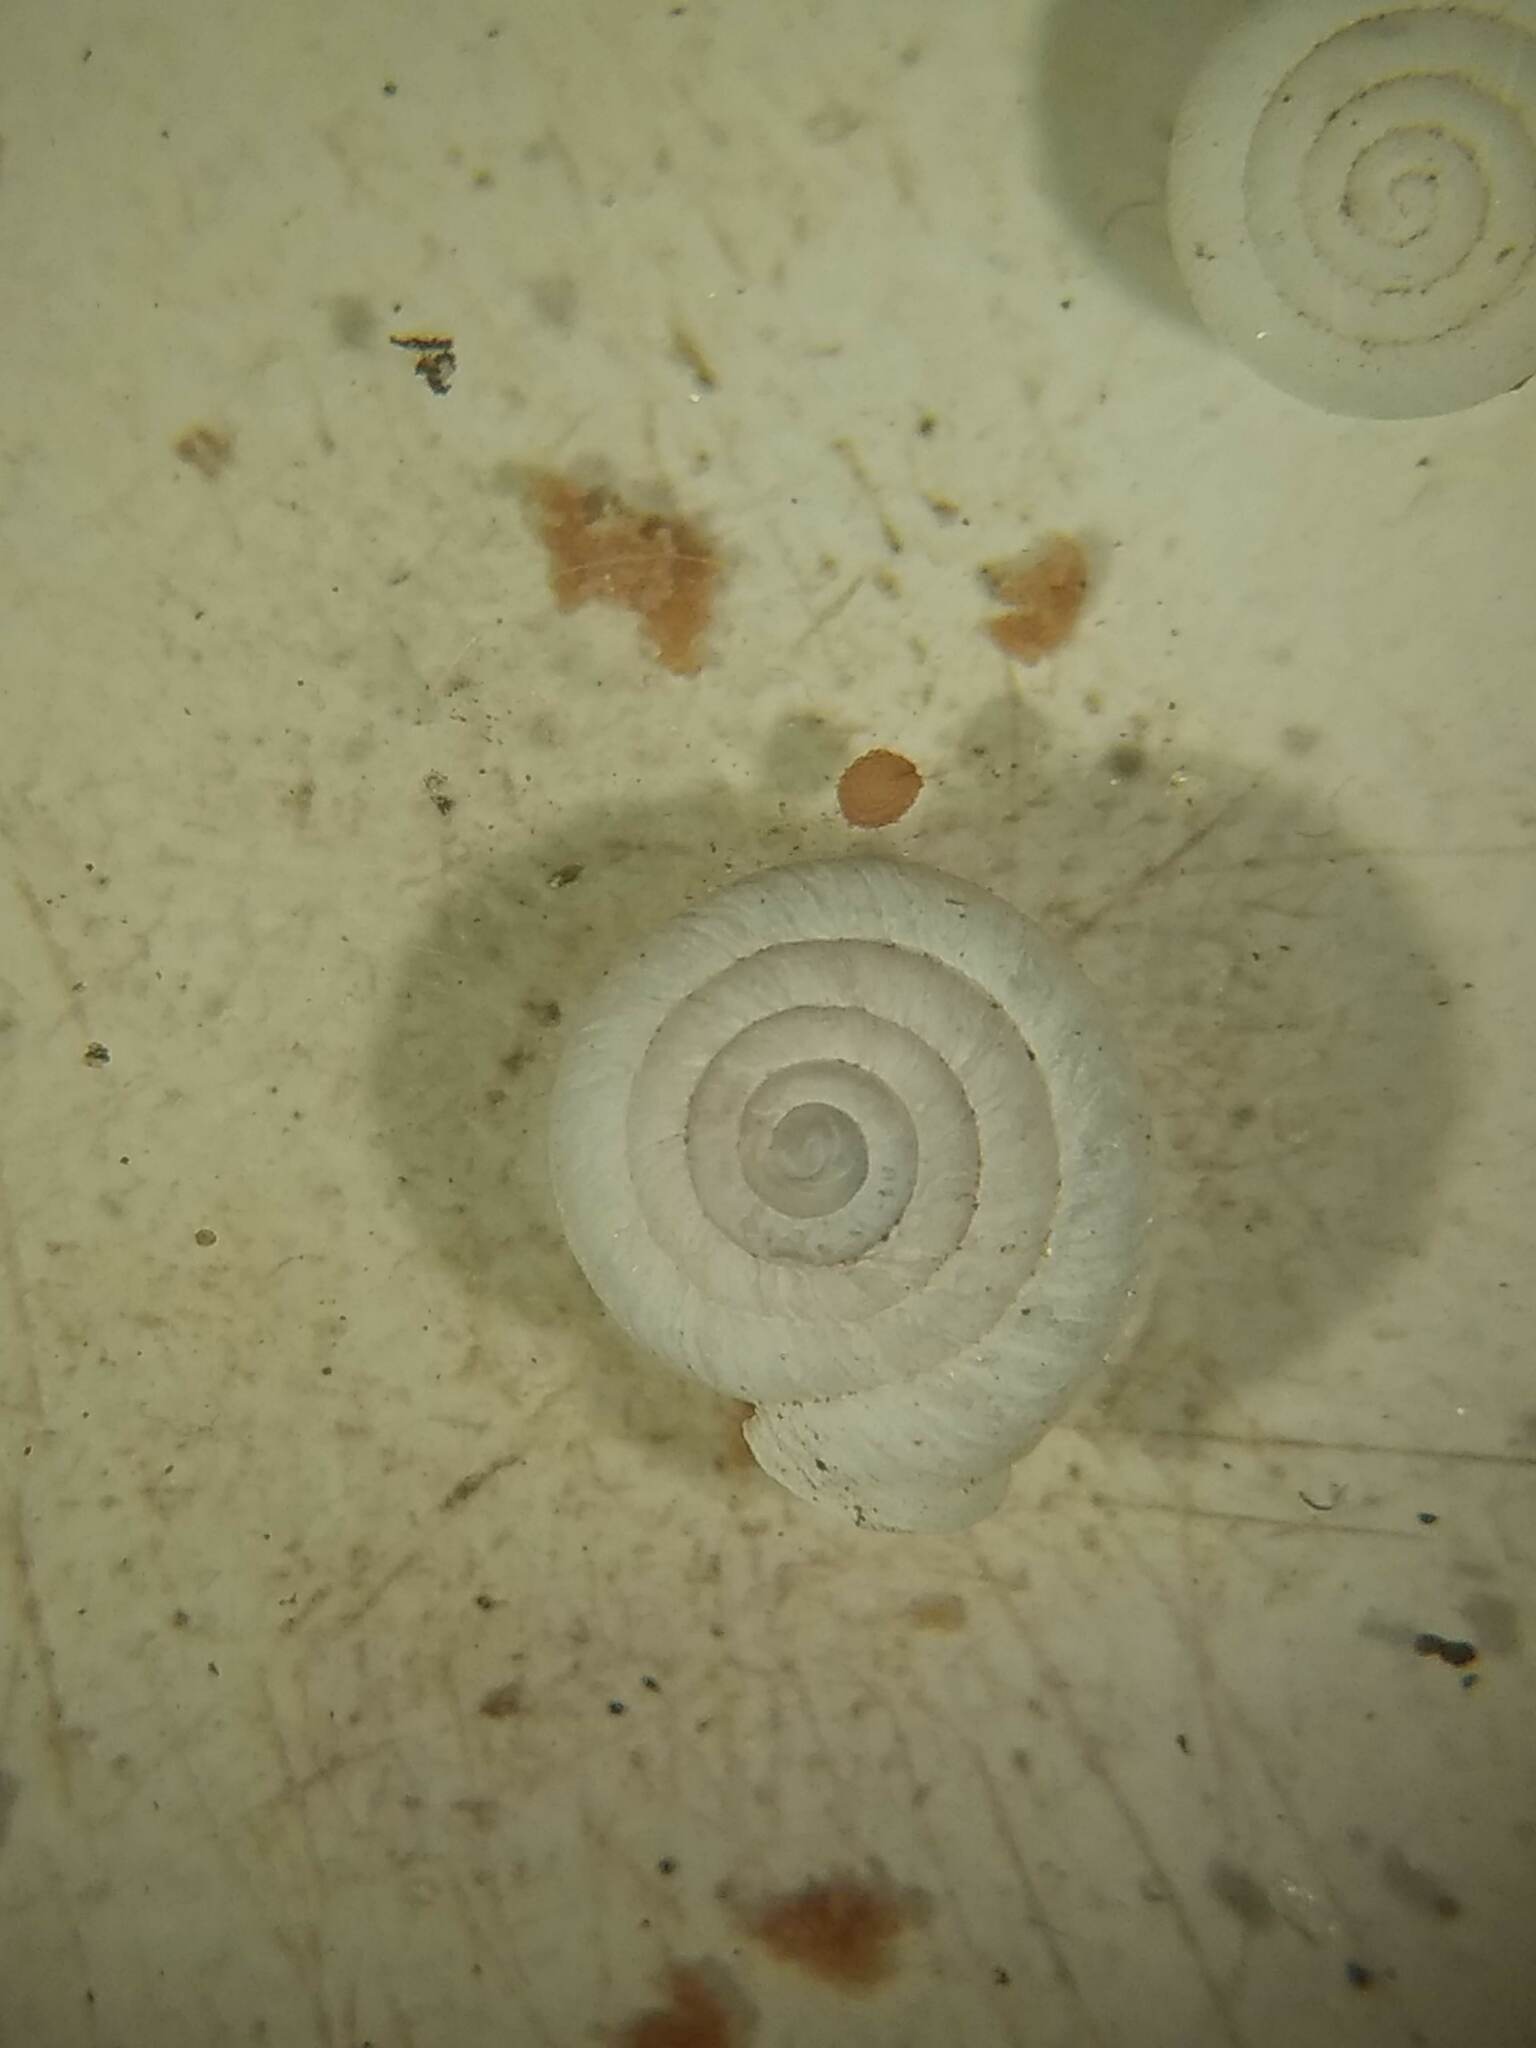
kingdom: Animalia
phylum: Mollusca
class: Gastropoda
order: Stylommatophora
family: Polygyridae
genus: Polygyra
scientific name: Polygyra cereolus
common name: Southern flatcone snail
